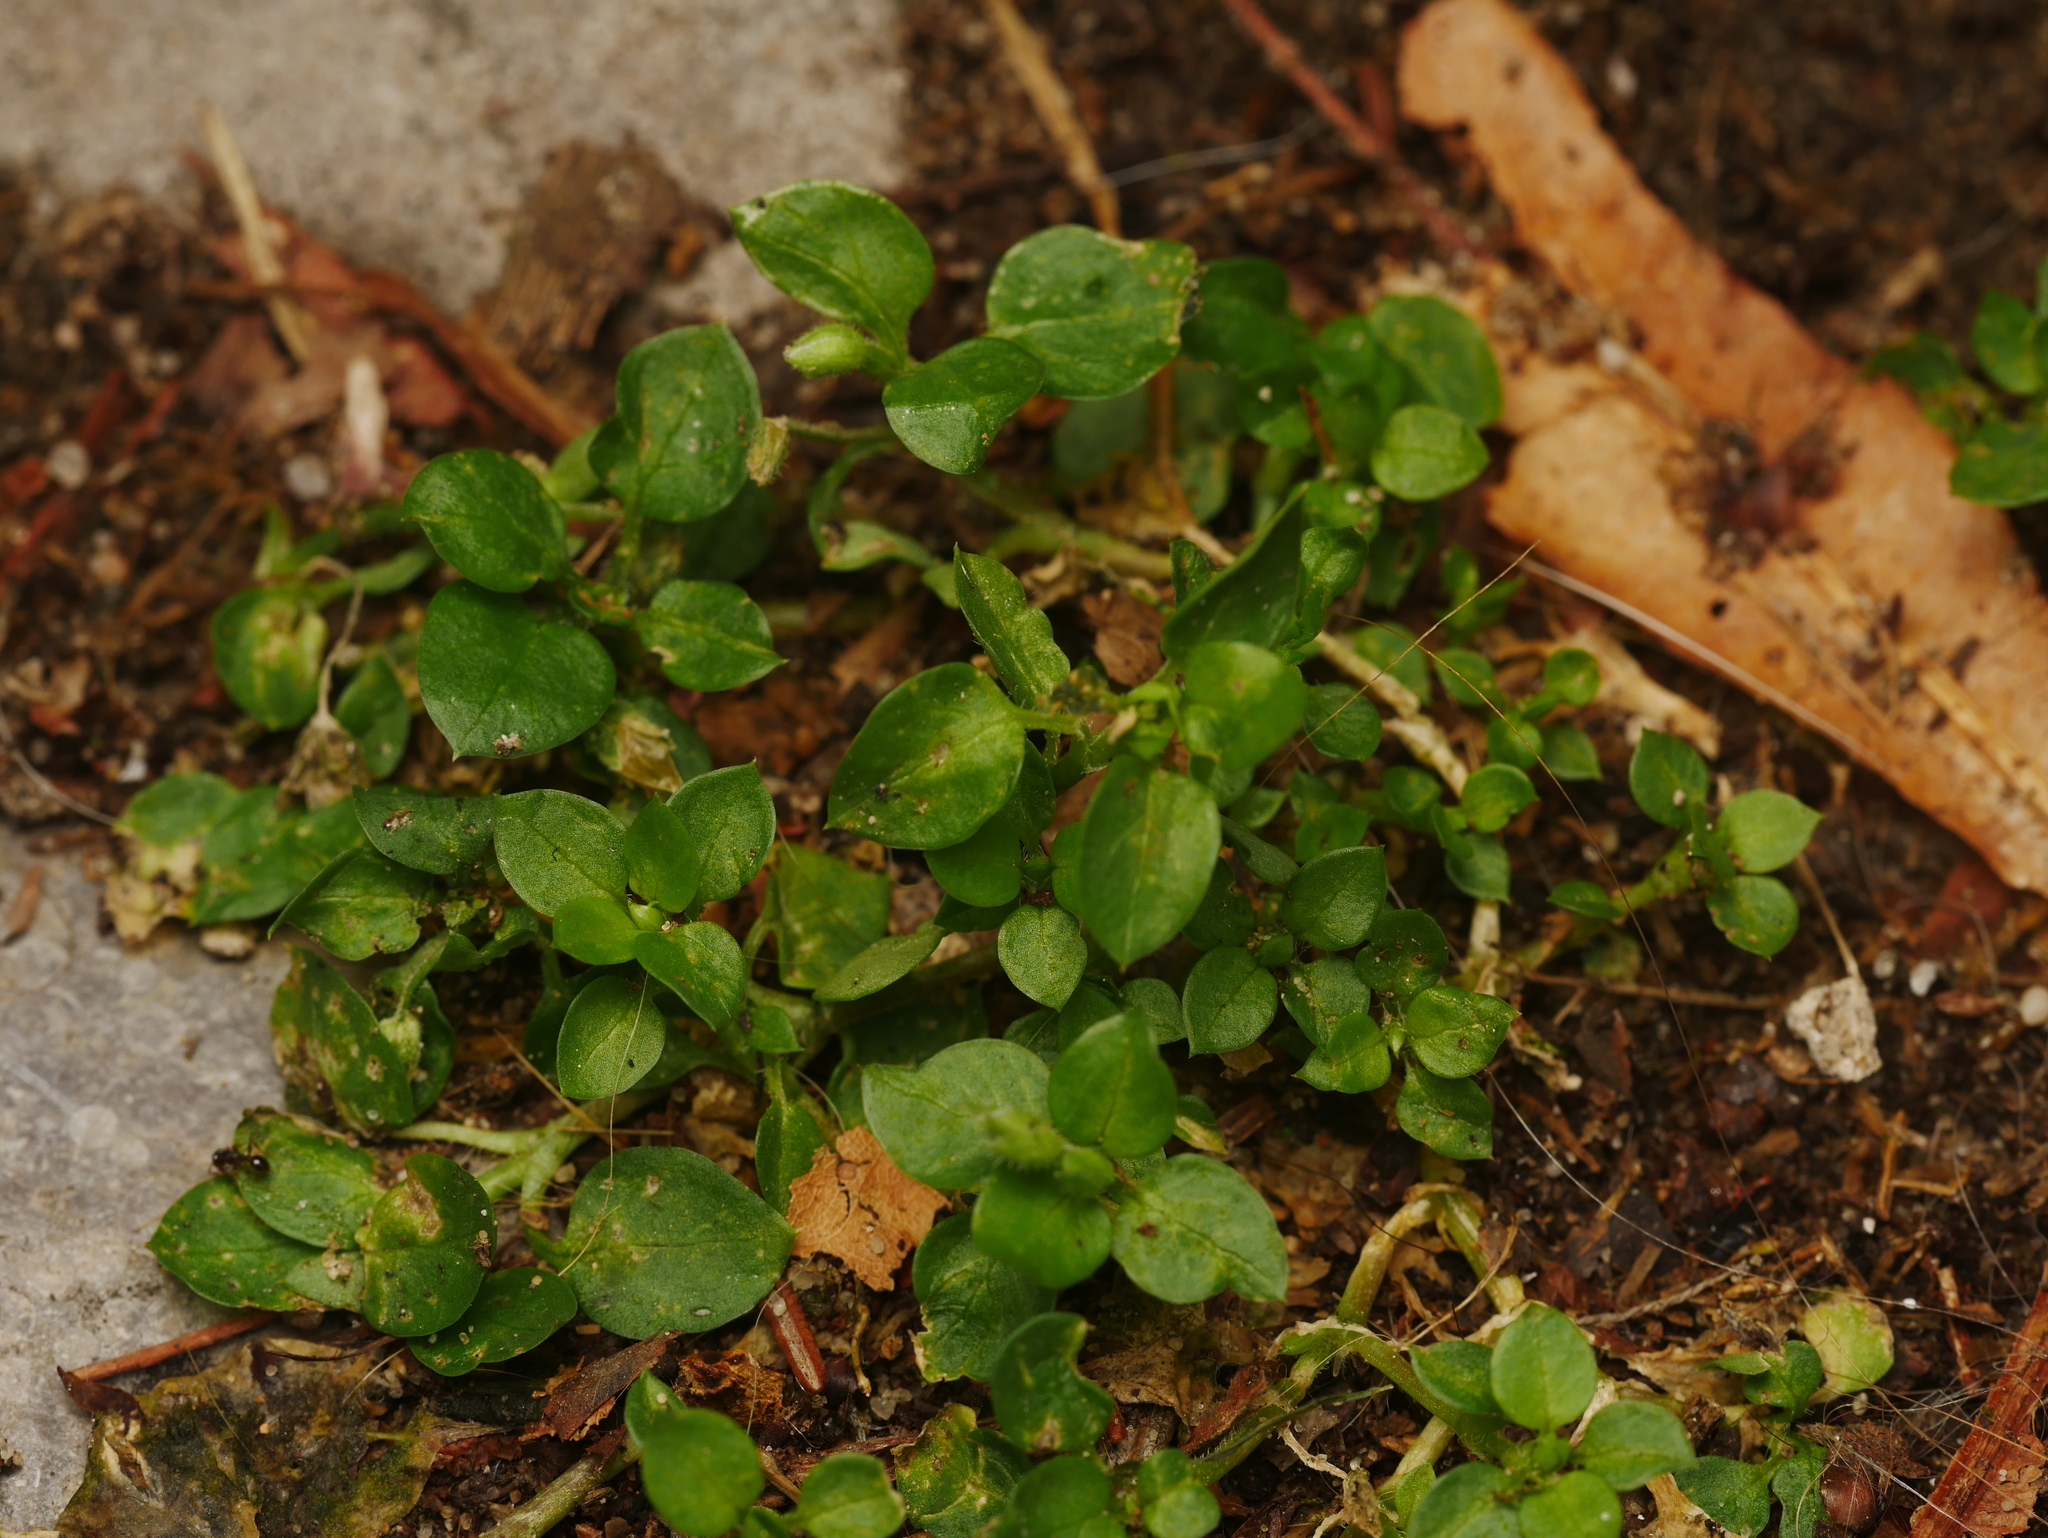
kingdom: Plantae
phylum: Tracheophyta
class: Magnoliopsida
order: Caryophyllales
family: Caryophyllaceae
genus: Stellaria
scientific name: Stellaria media
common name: Common chickweed
